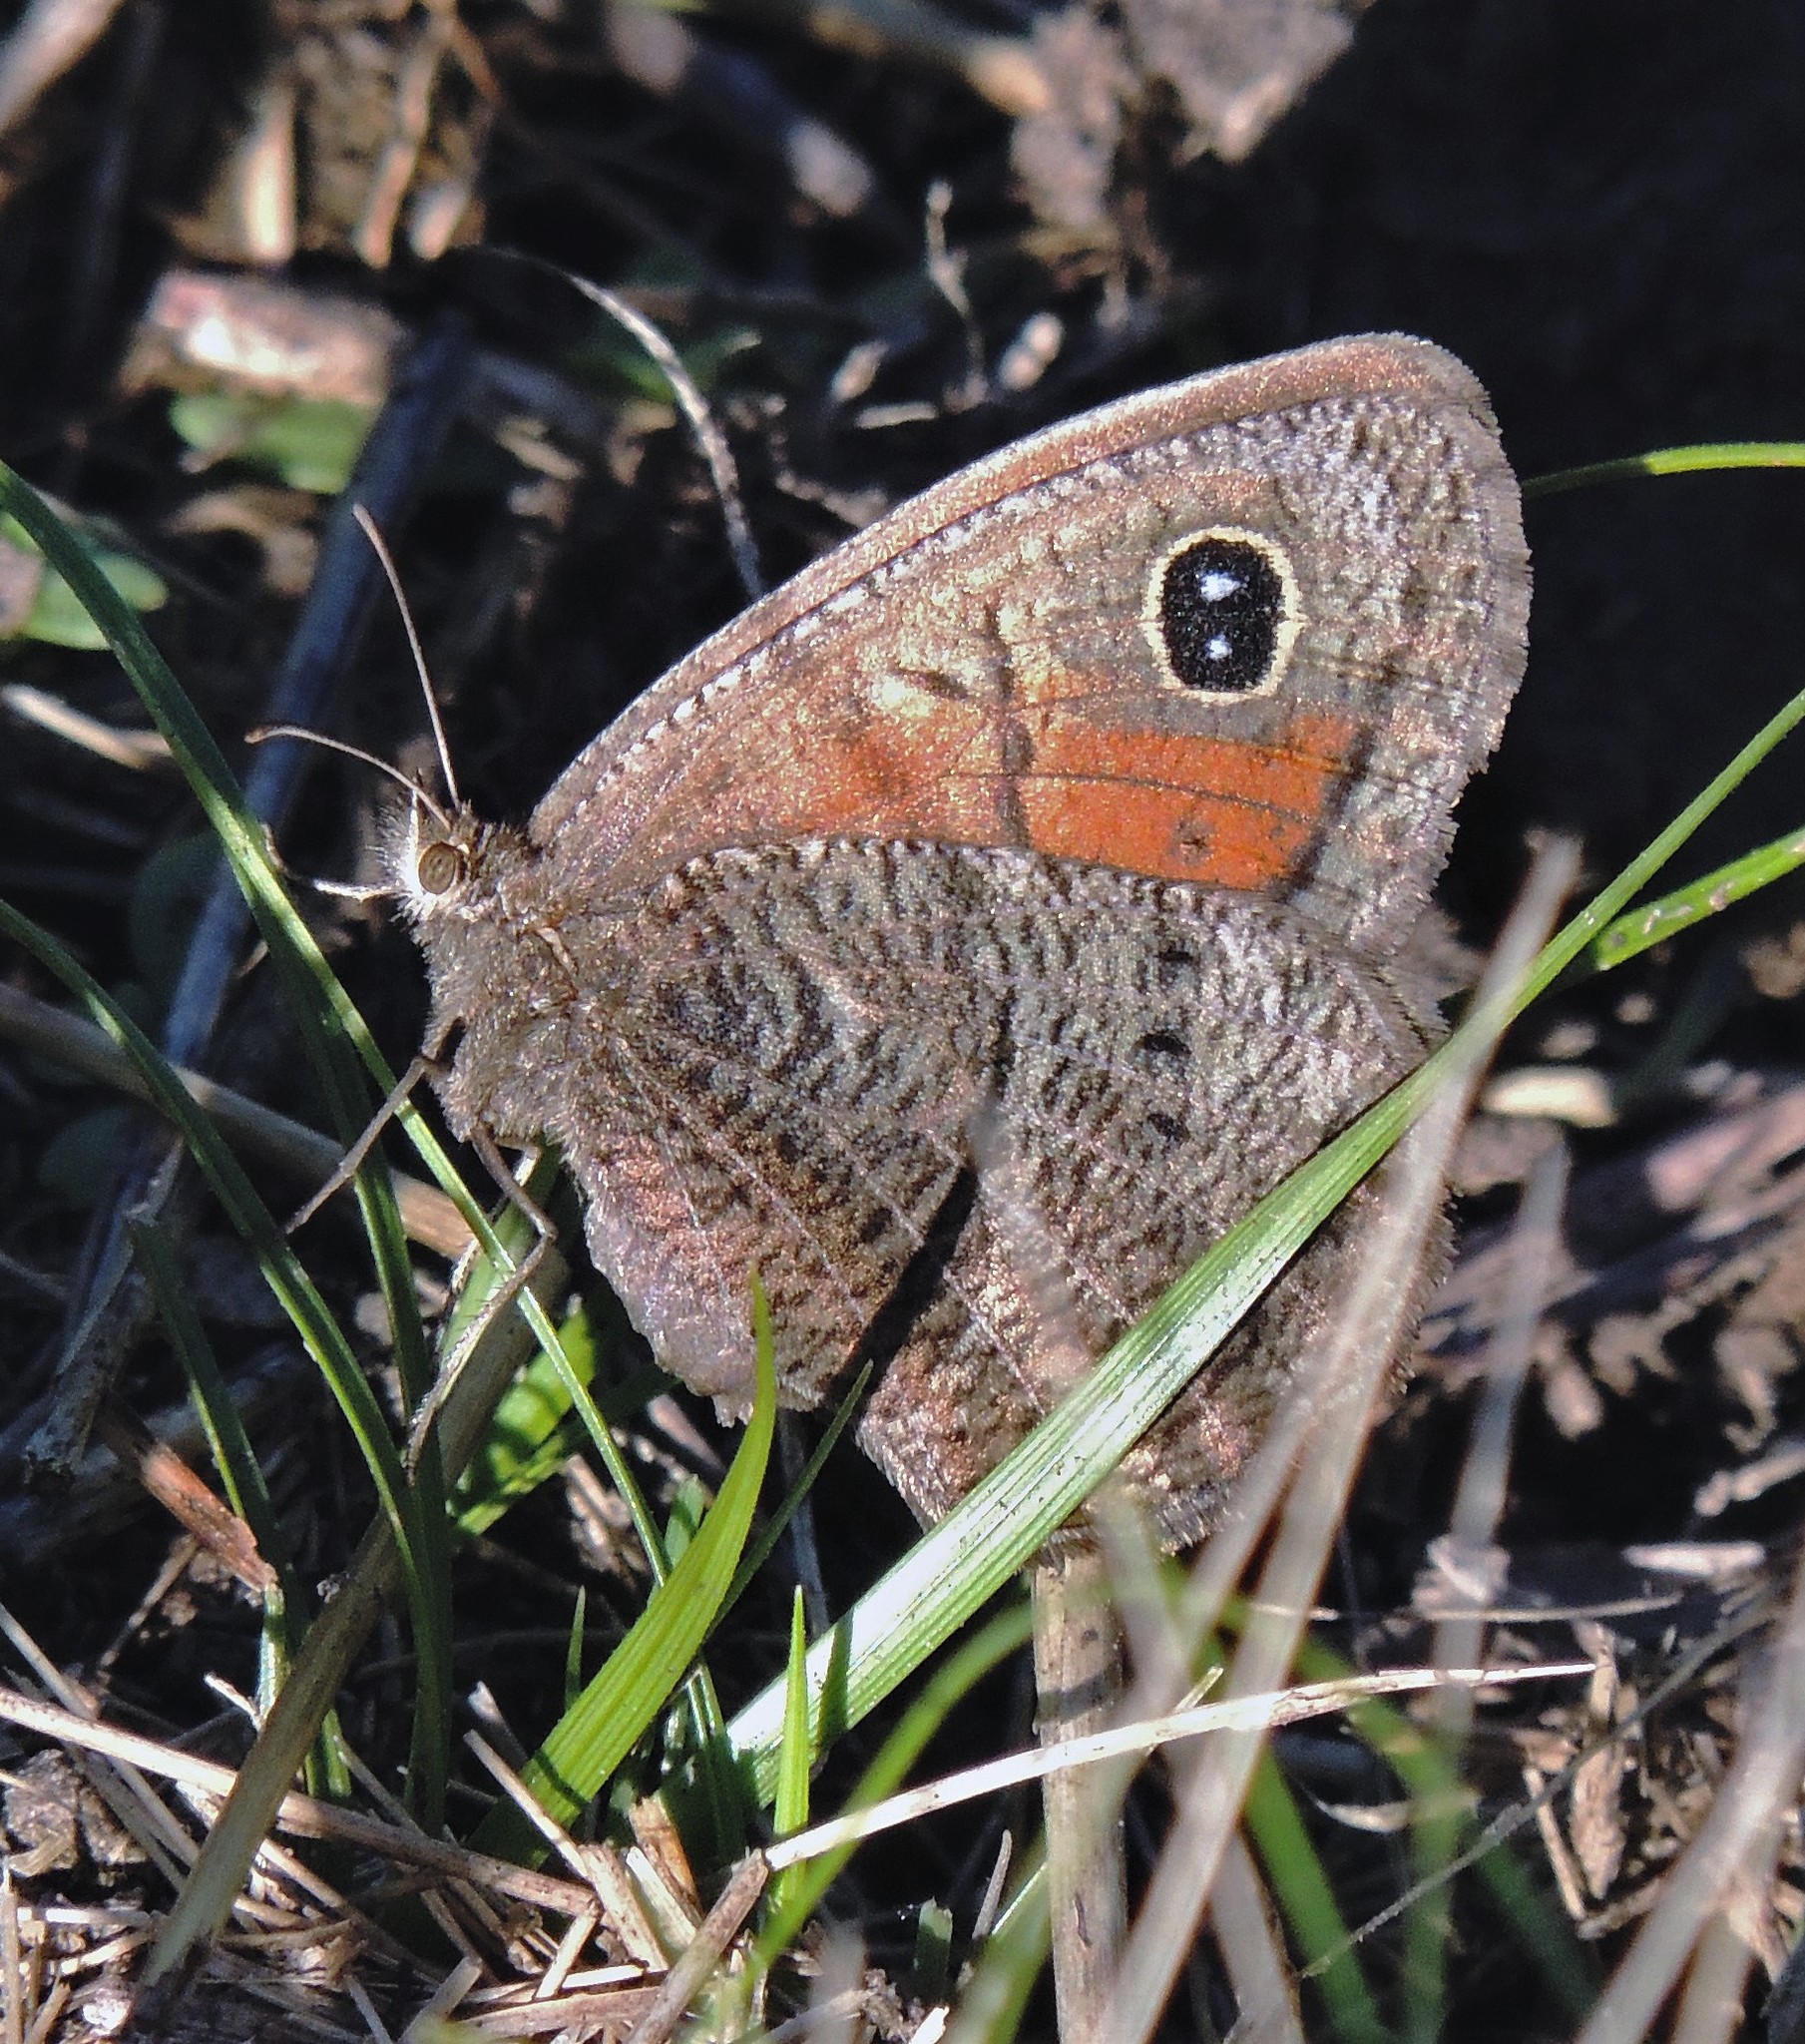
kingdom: Animalia
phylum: Arthropoda
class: Insecta
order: Lepidoptera
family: Nymphalidae
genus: Pampasatyrus
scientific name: Pampasatyrus quies
